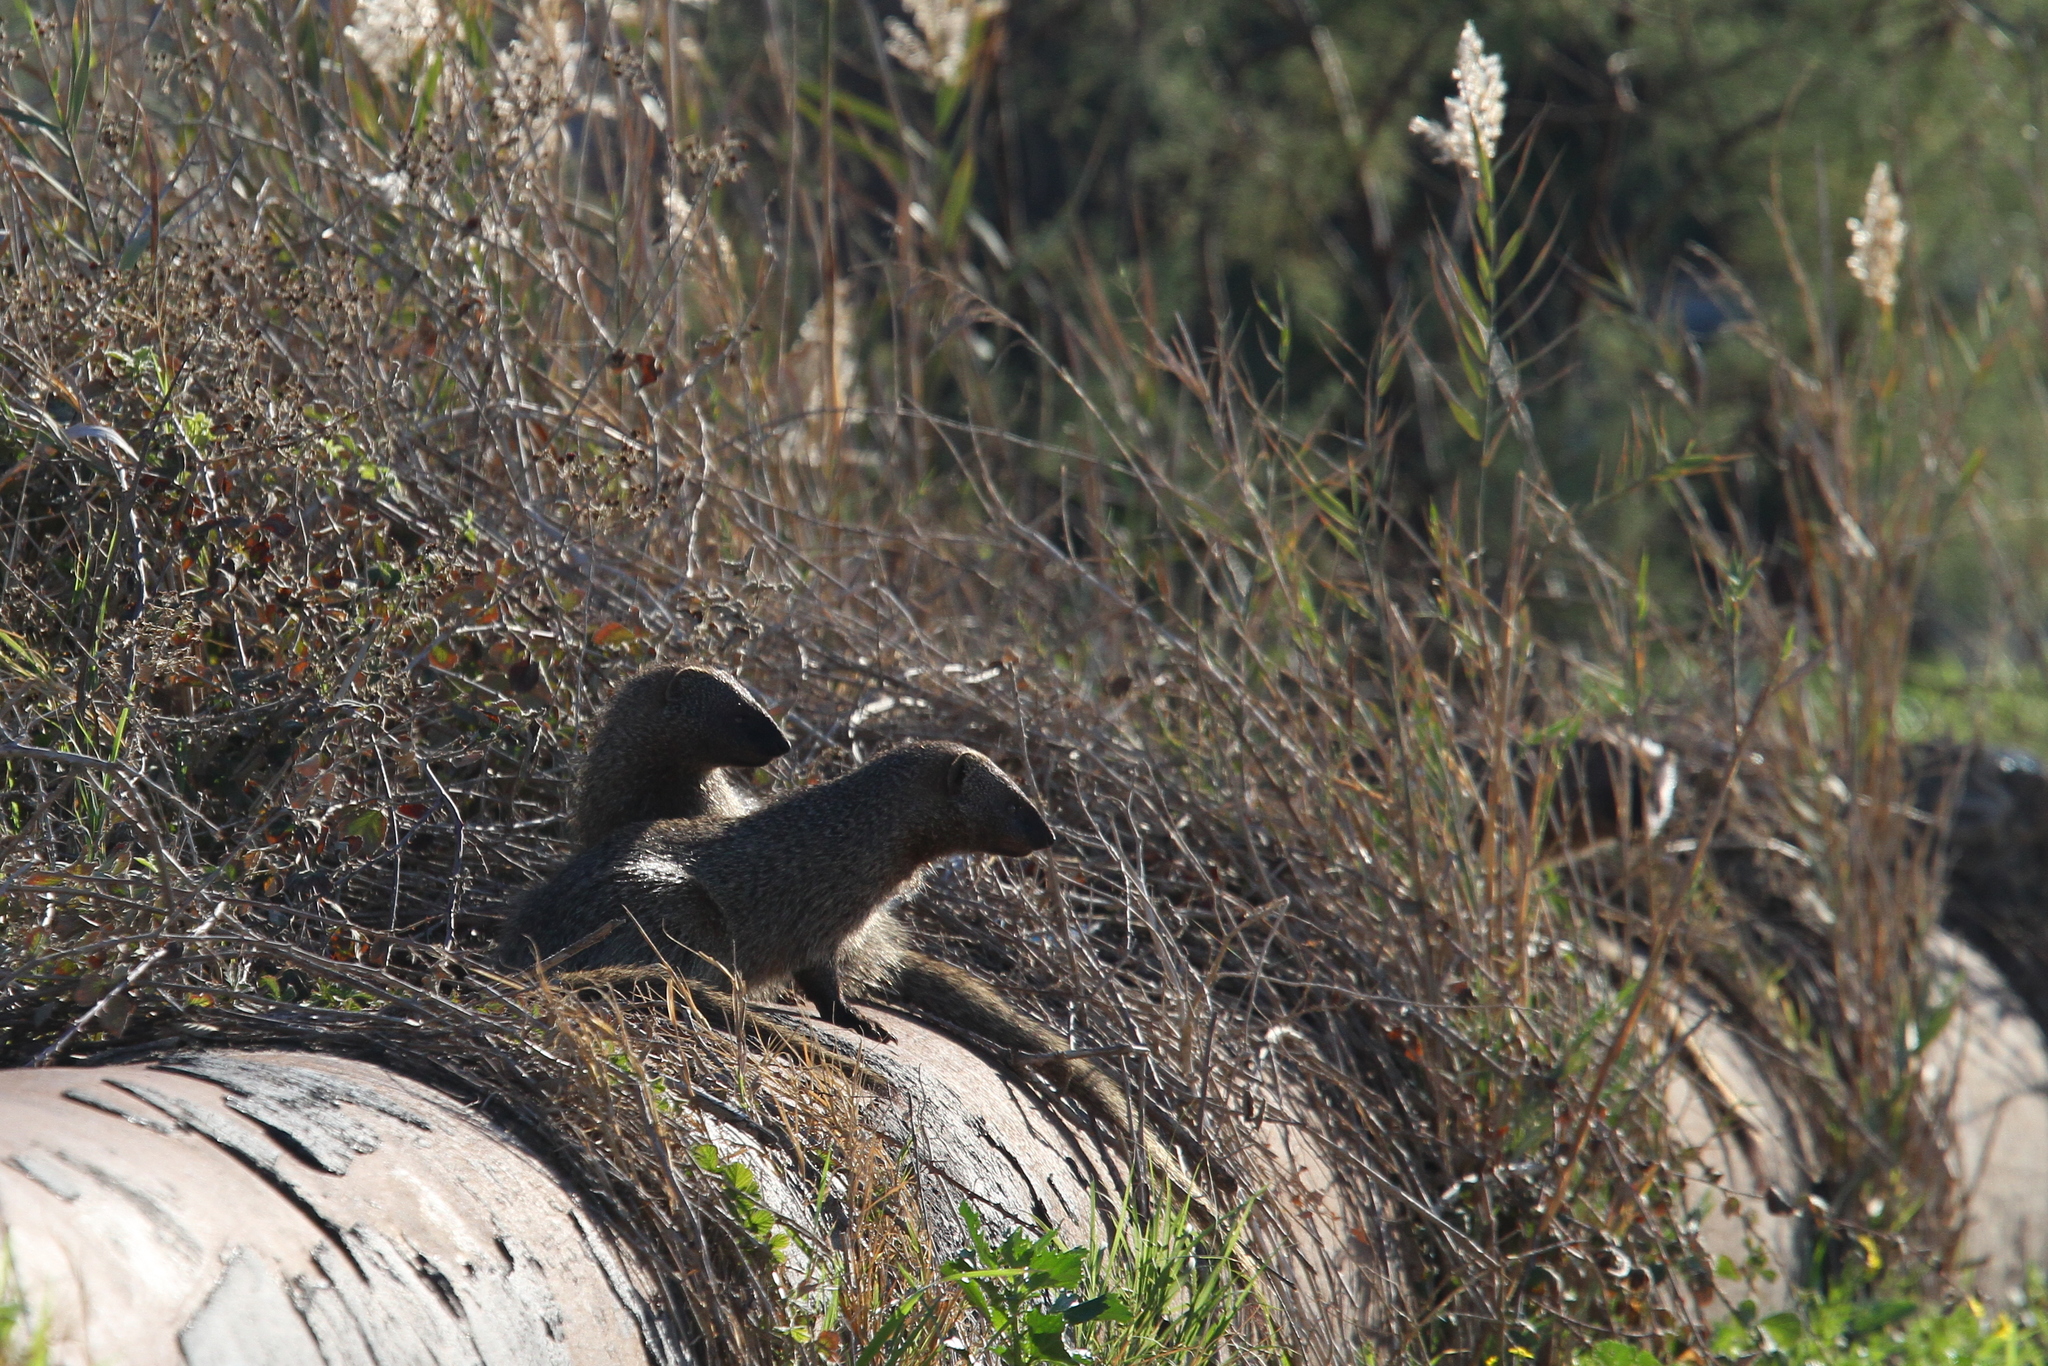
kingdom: Animalia
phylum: Chordata
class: Mammalia
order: Carnivora
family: Herpestidae
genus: Herpestes
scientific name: Herpestes ichneumon
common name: Egyptian mongoose
